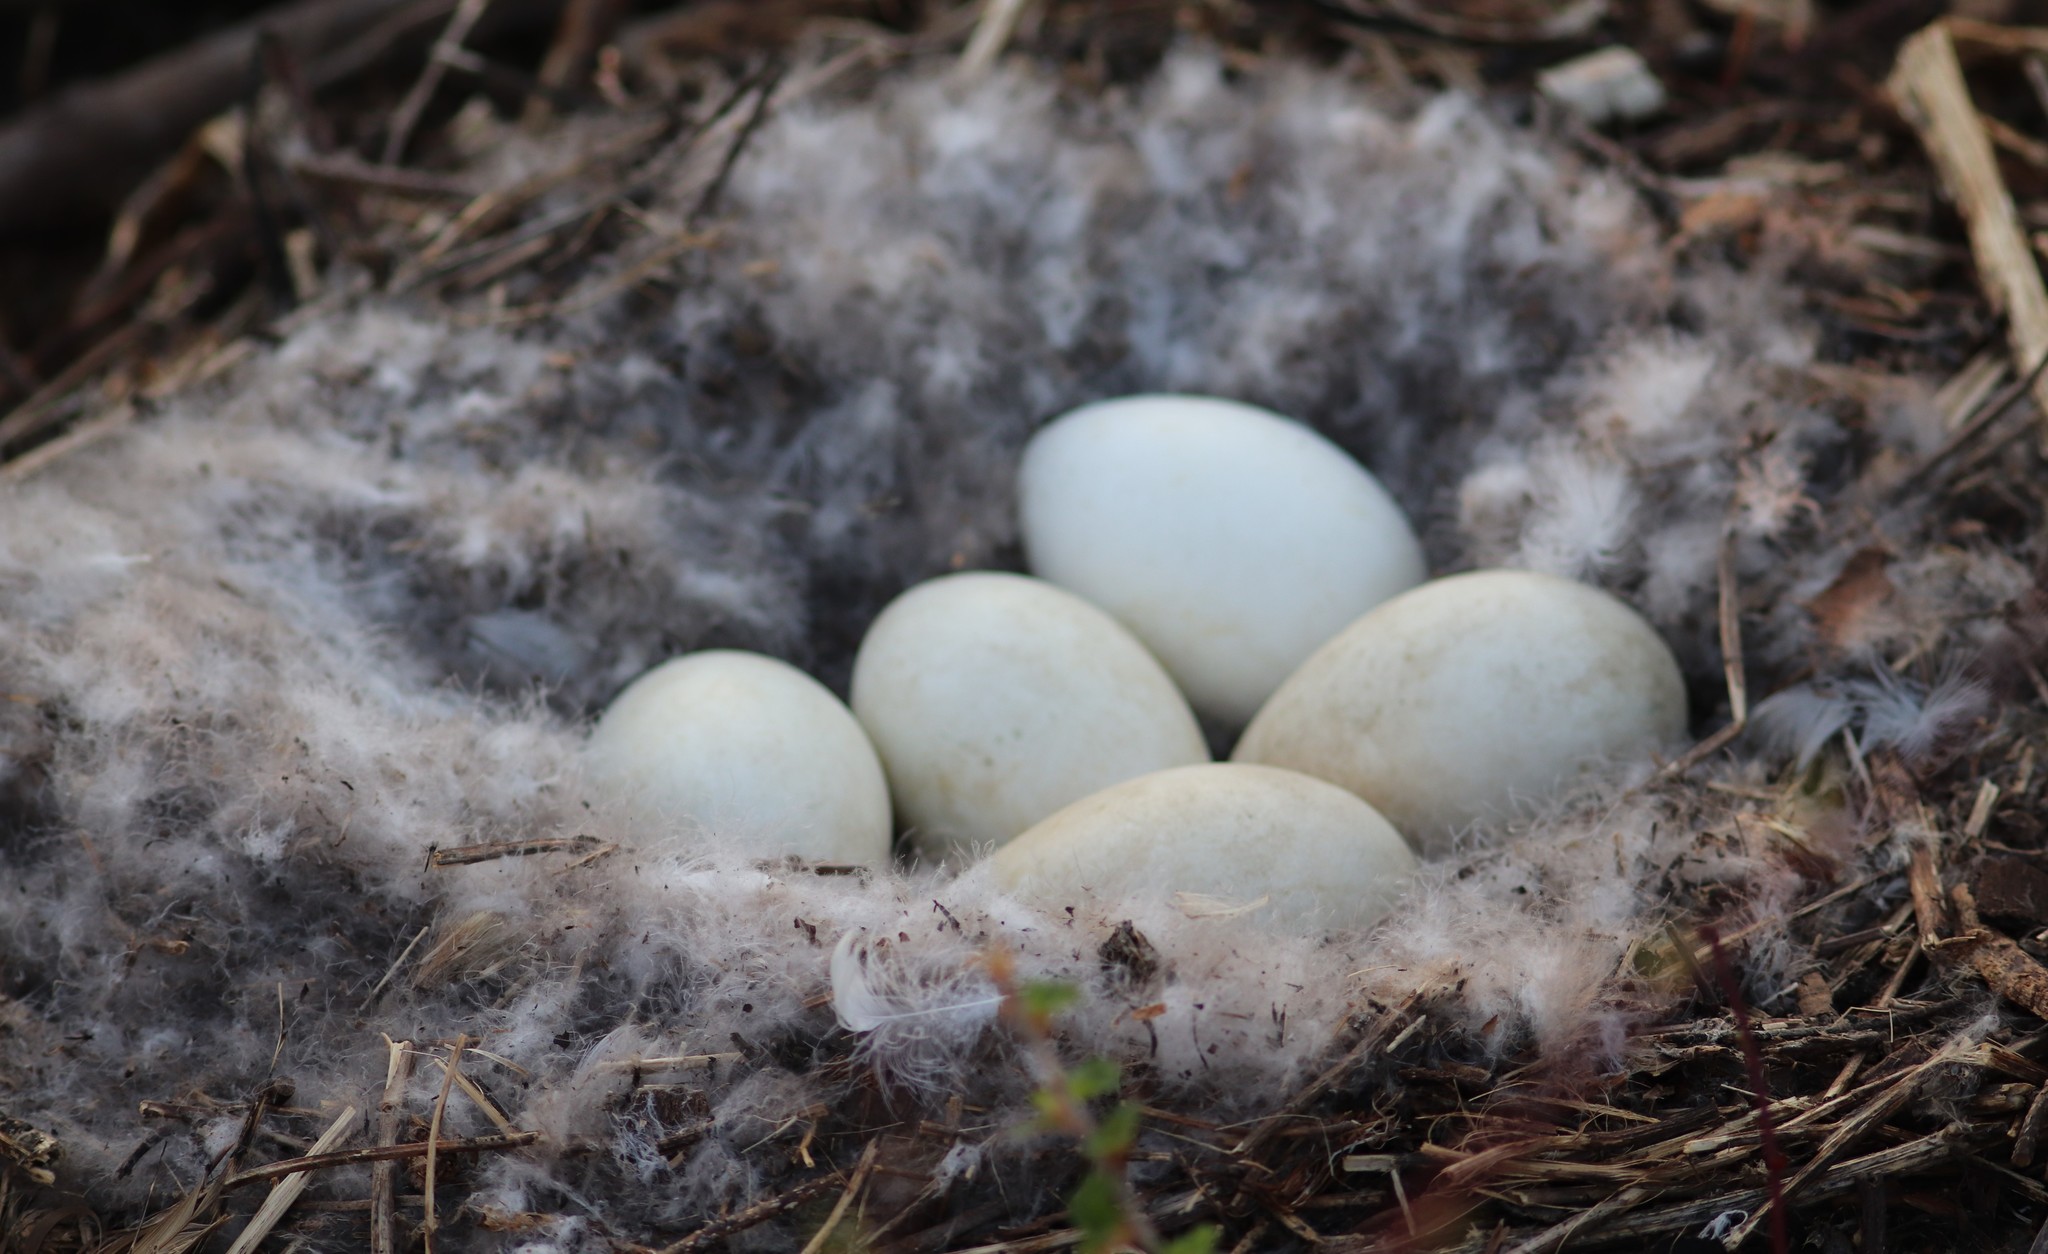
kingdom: Animalia
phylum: Chordata
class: Aves
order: Anseriformes
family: Anatidae
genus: Branta
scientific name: Branta canadensis
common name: Canada goose
